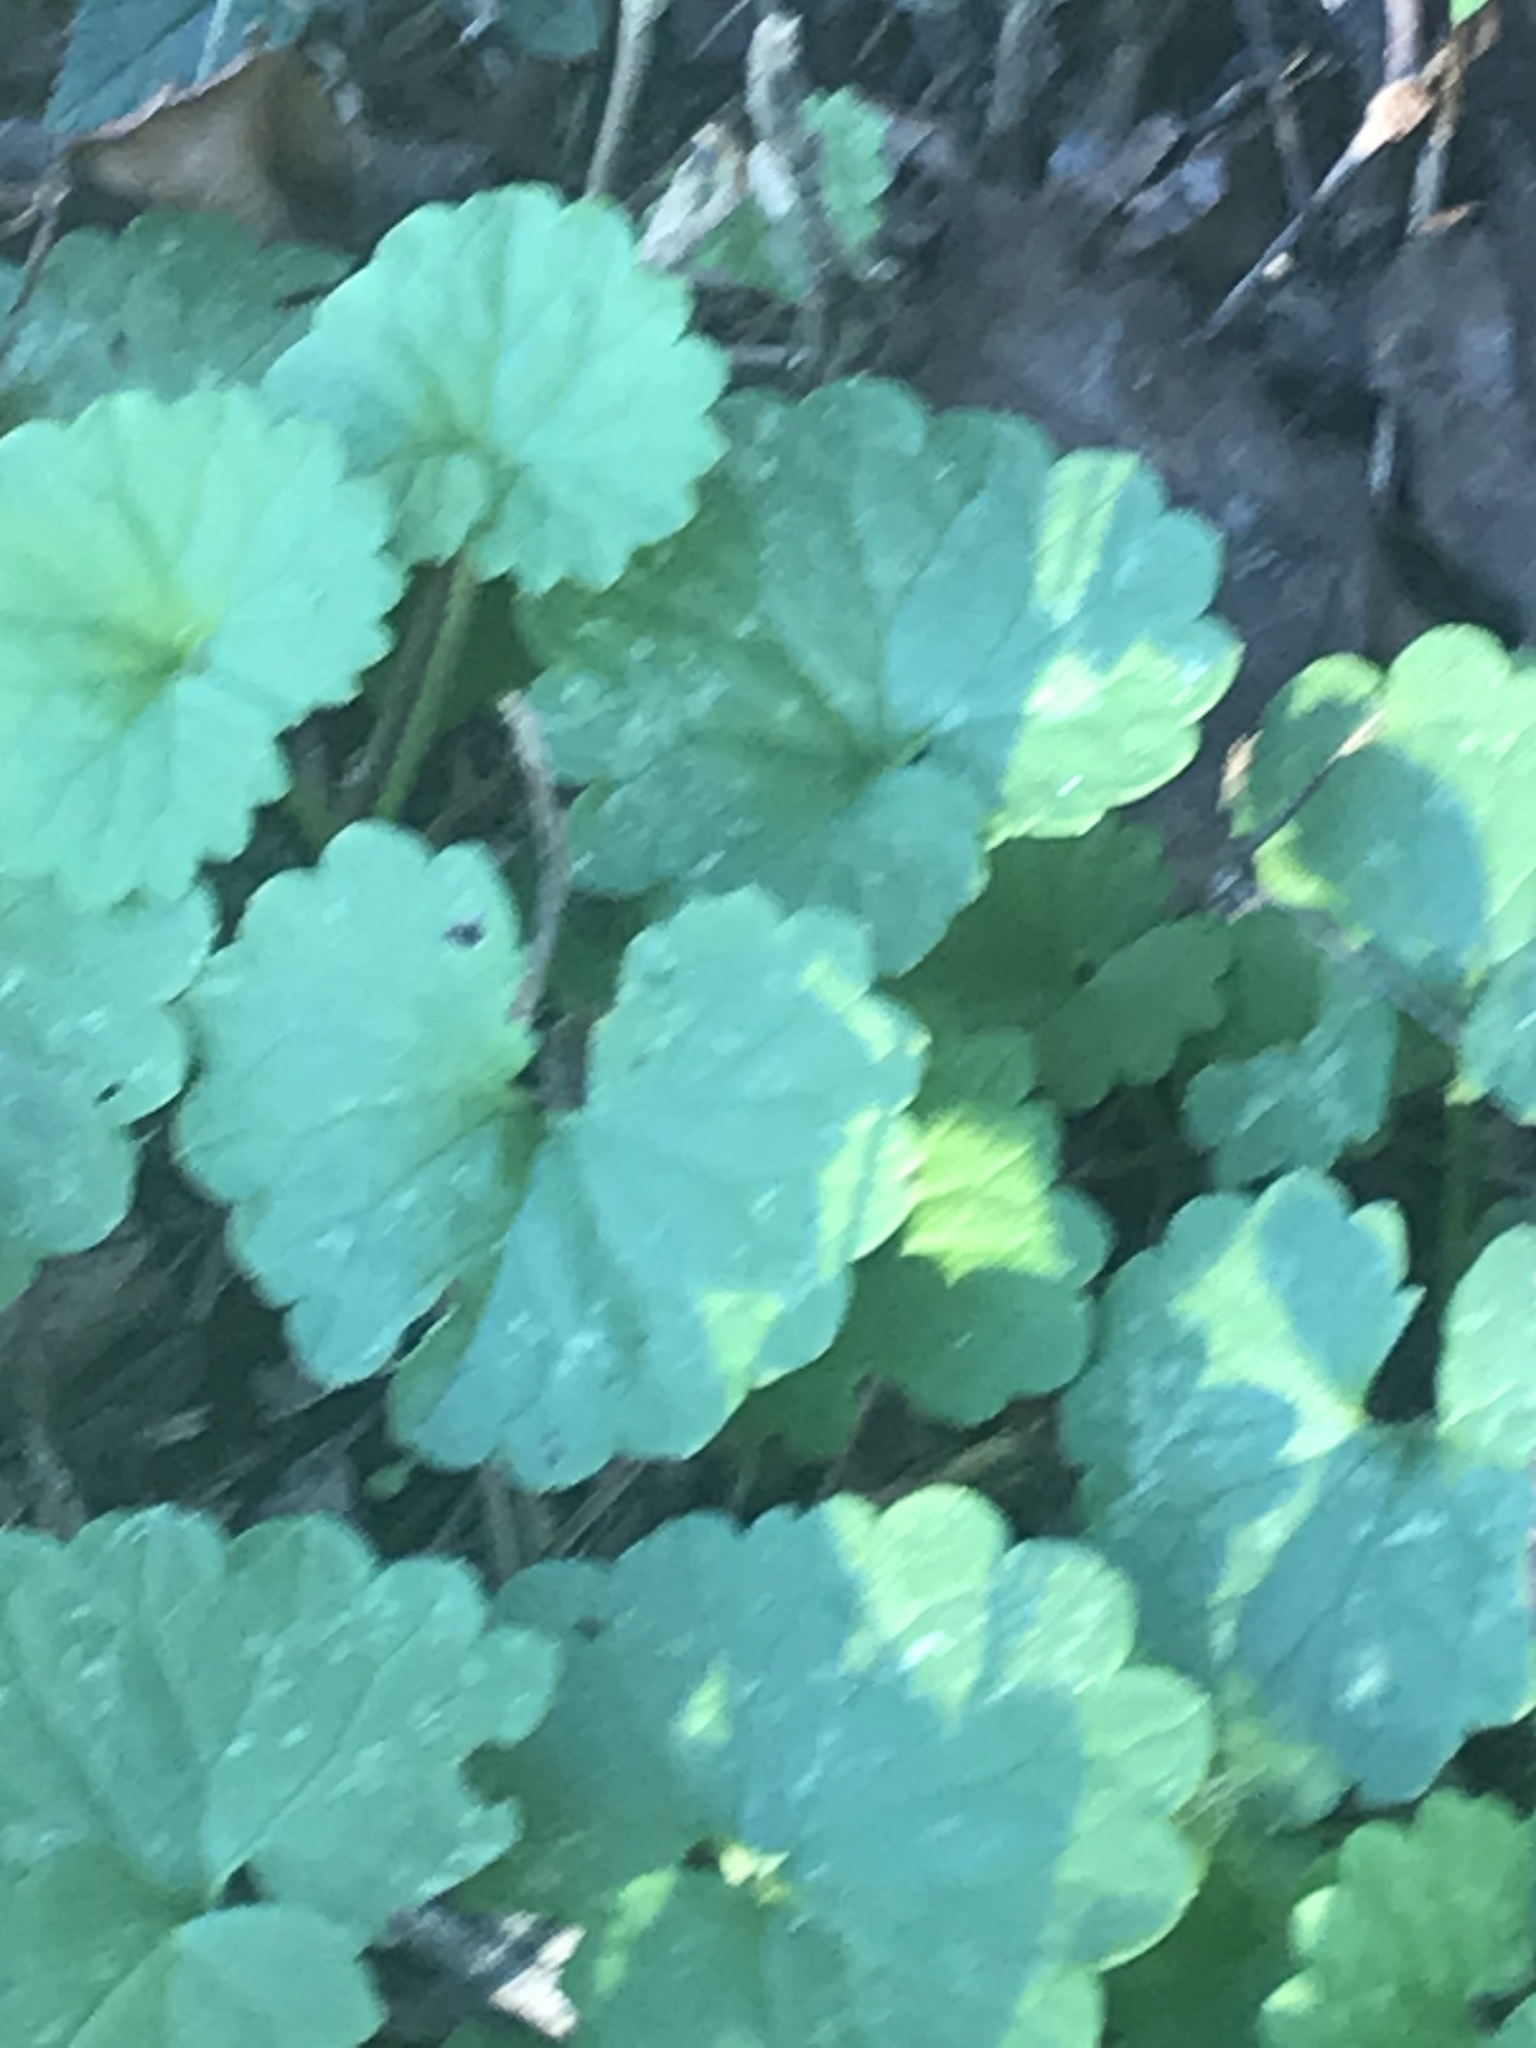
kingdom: Plantae
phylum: Tracheophyta
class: Magnoliopsida
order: Lamiales
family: Lamiaceae
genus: Glechoma
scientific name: Glechoma hederacea
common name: Ground ivy
